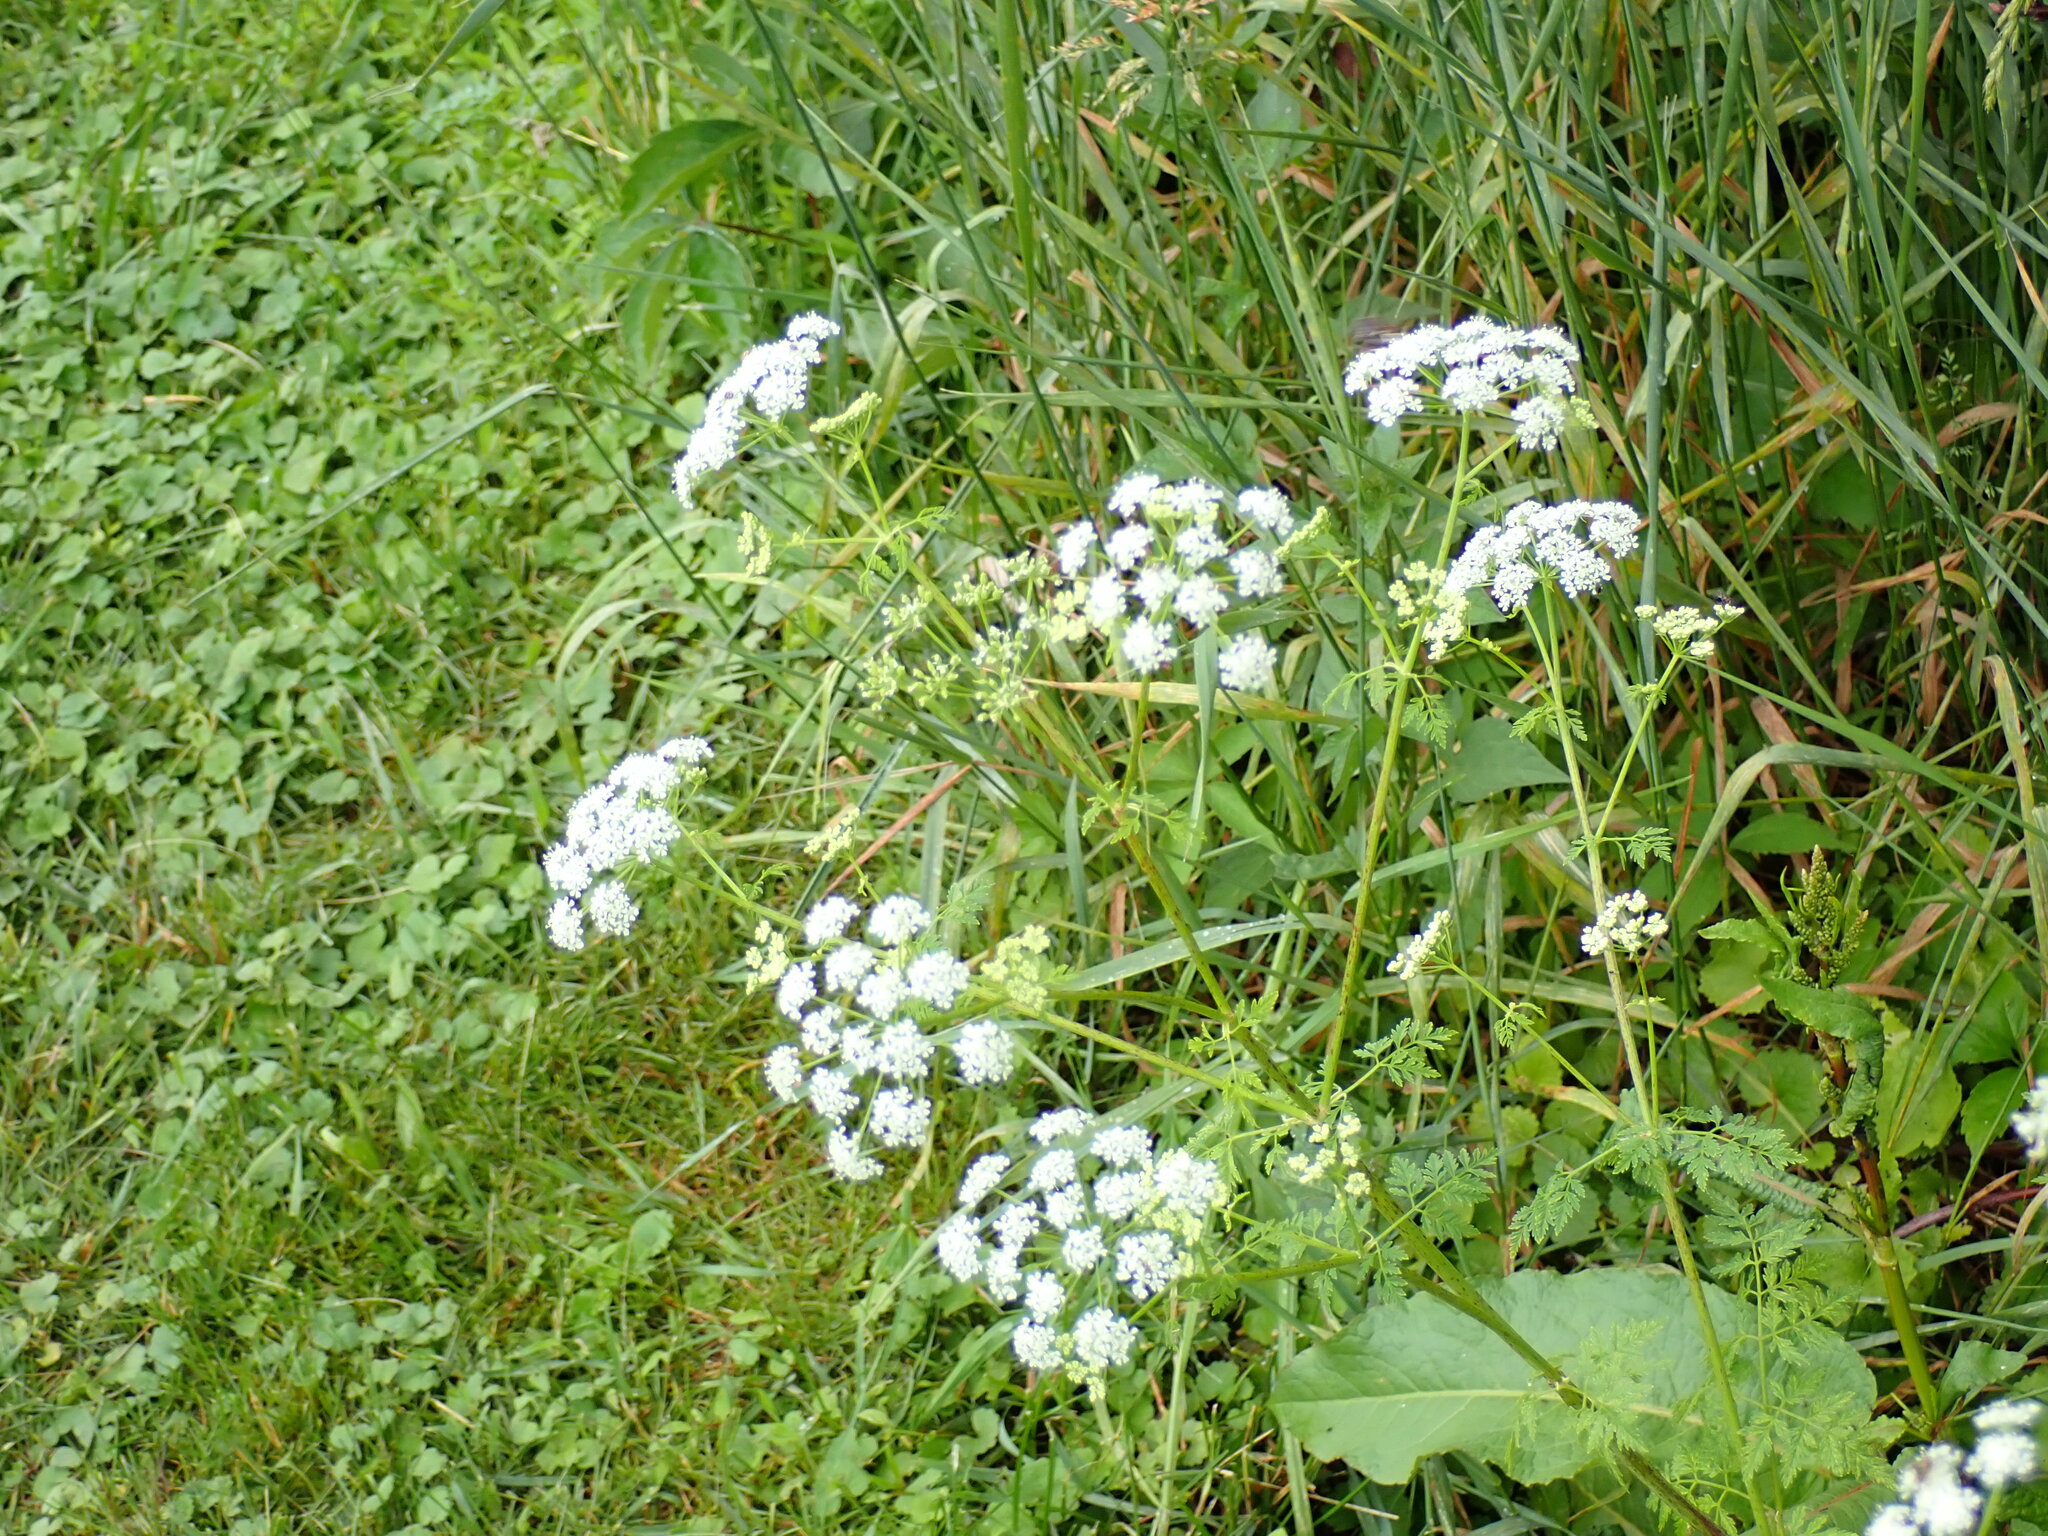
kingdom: Plantae
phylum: Tracheophyta
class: Magnoliopsida
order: Apiales
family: Apiaceae
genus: Conium
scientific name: Conium maculatum
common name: Hemlock
